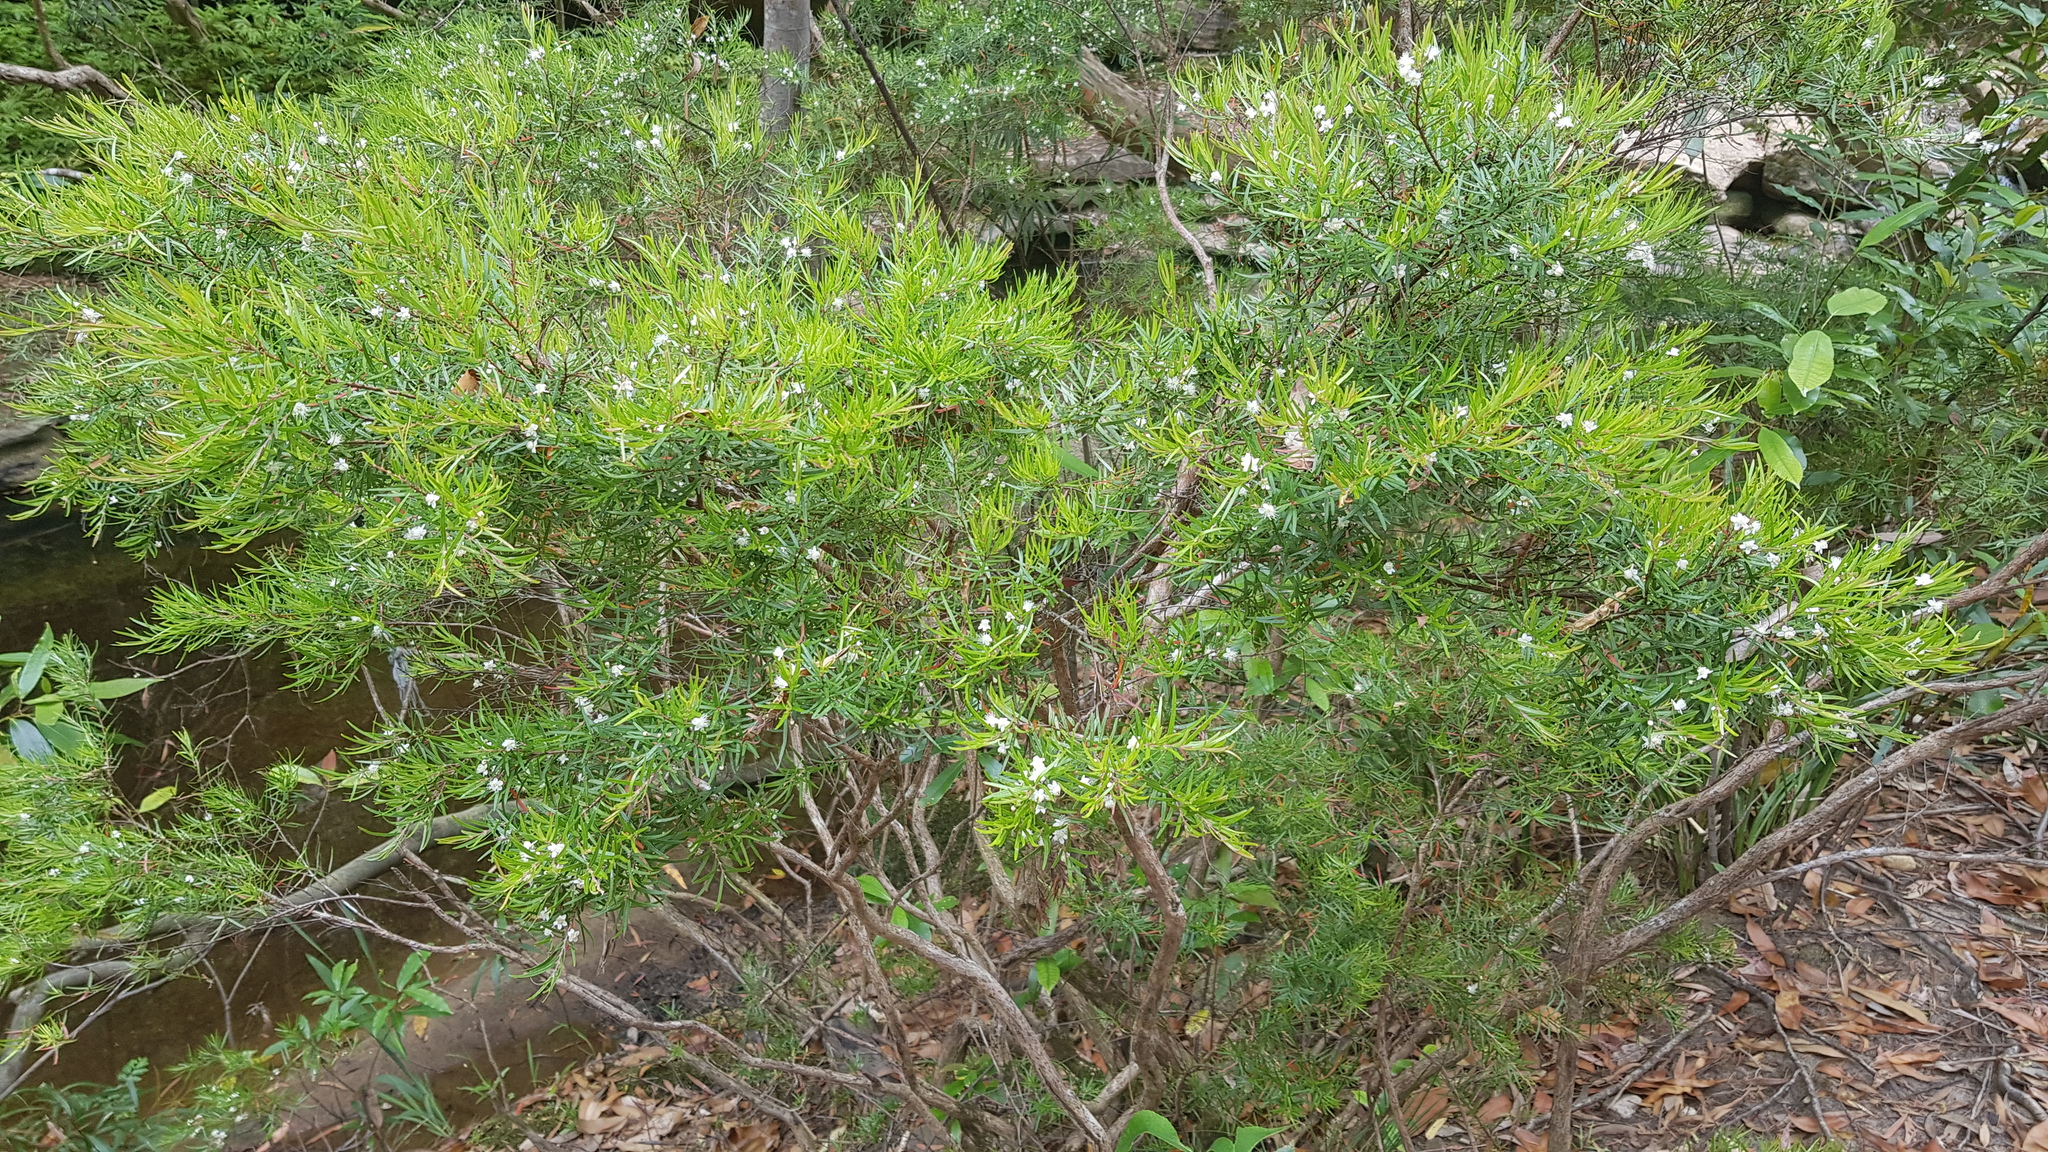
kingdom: Plantae
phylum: Tracheophyta
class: Magnoliopsida
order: Myrtales
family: Myrtaceae
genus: Austromyrtus
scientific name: Austromyrtus tenuifolia
